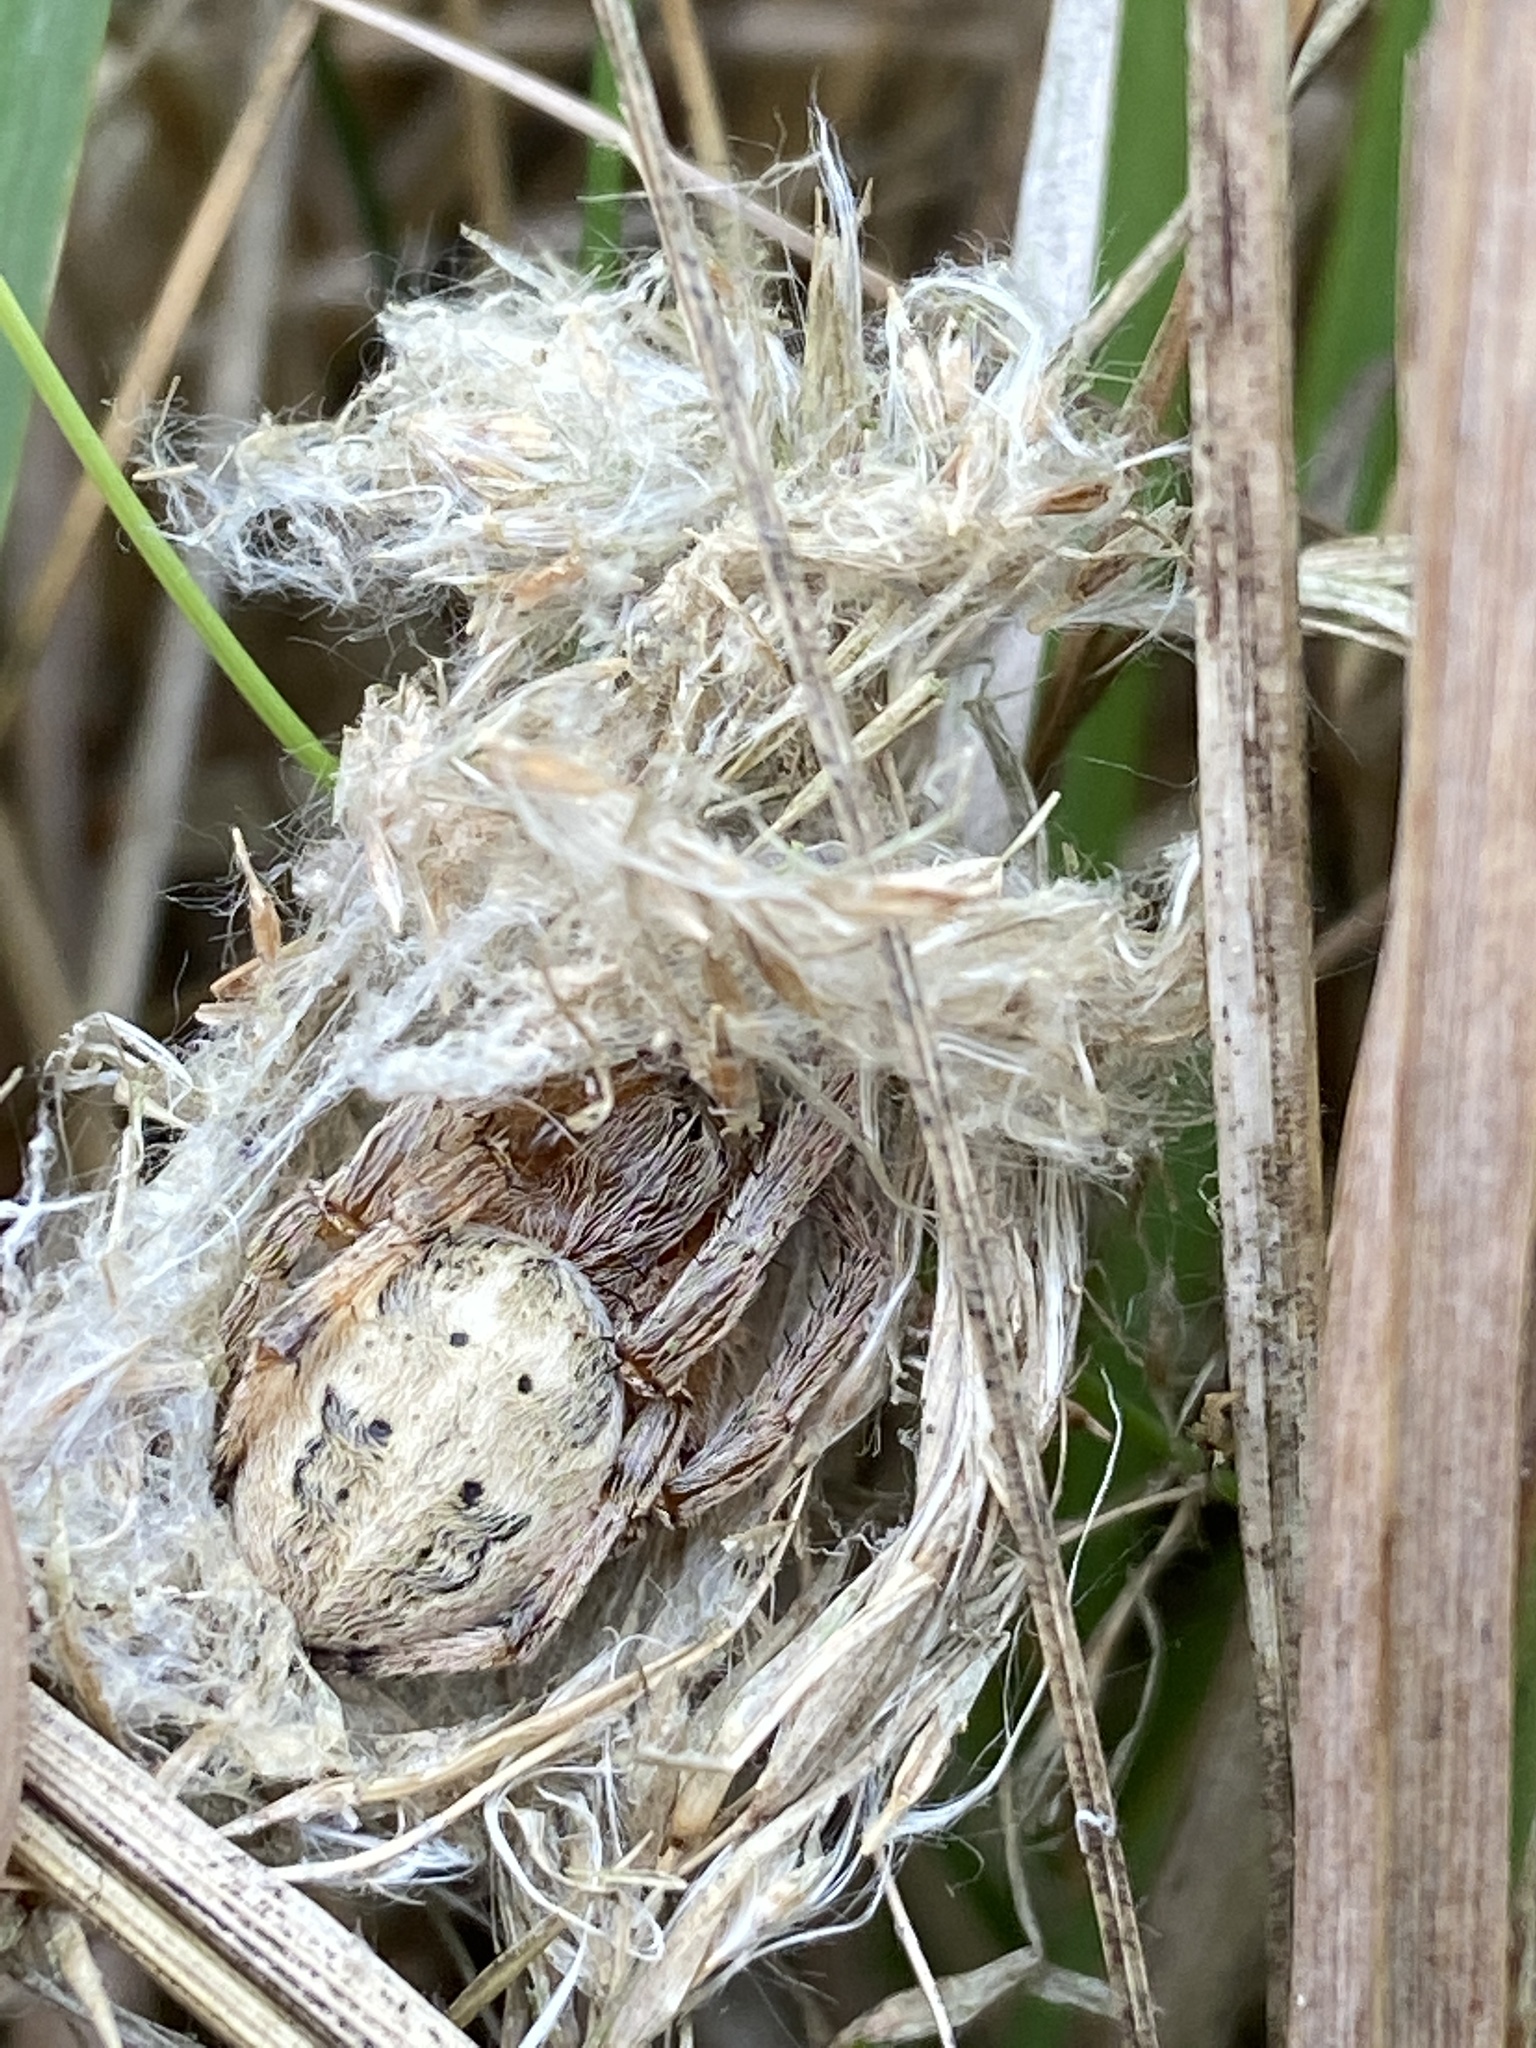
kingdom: Animalia
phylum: Arthropoda
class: Arachnida
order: Araneae
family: Araneidae
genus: Larinioides
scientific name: Larinioides cornutus
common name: Furrow orbweaver
